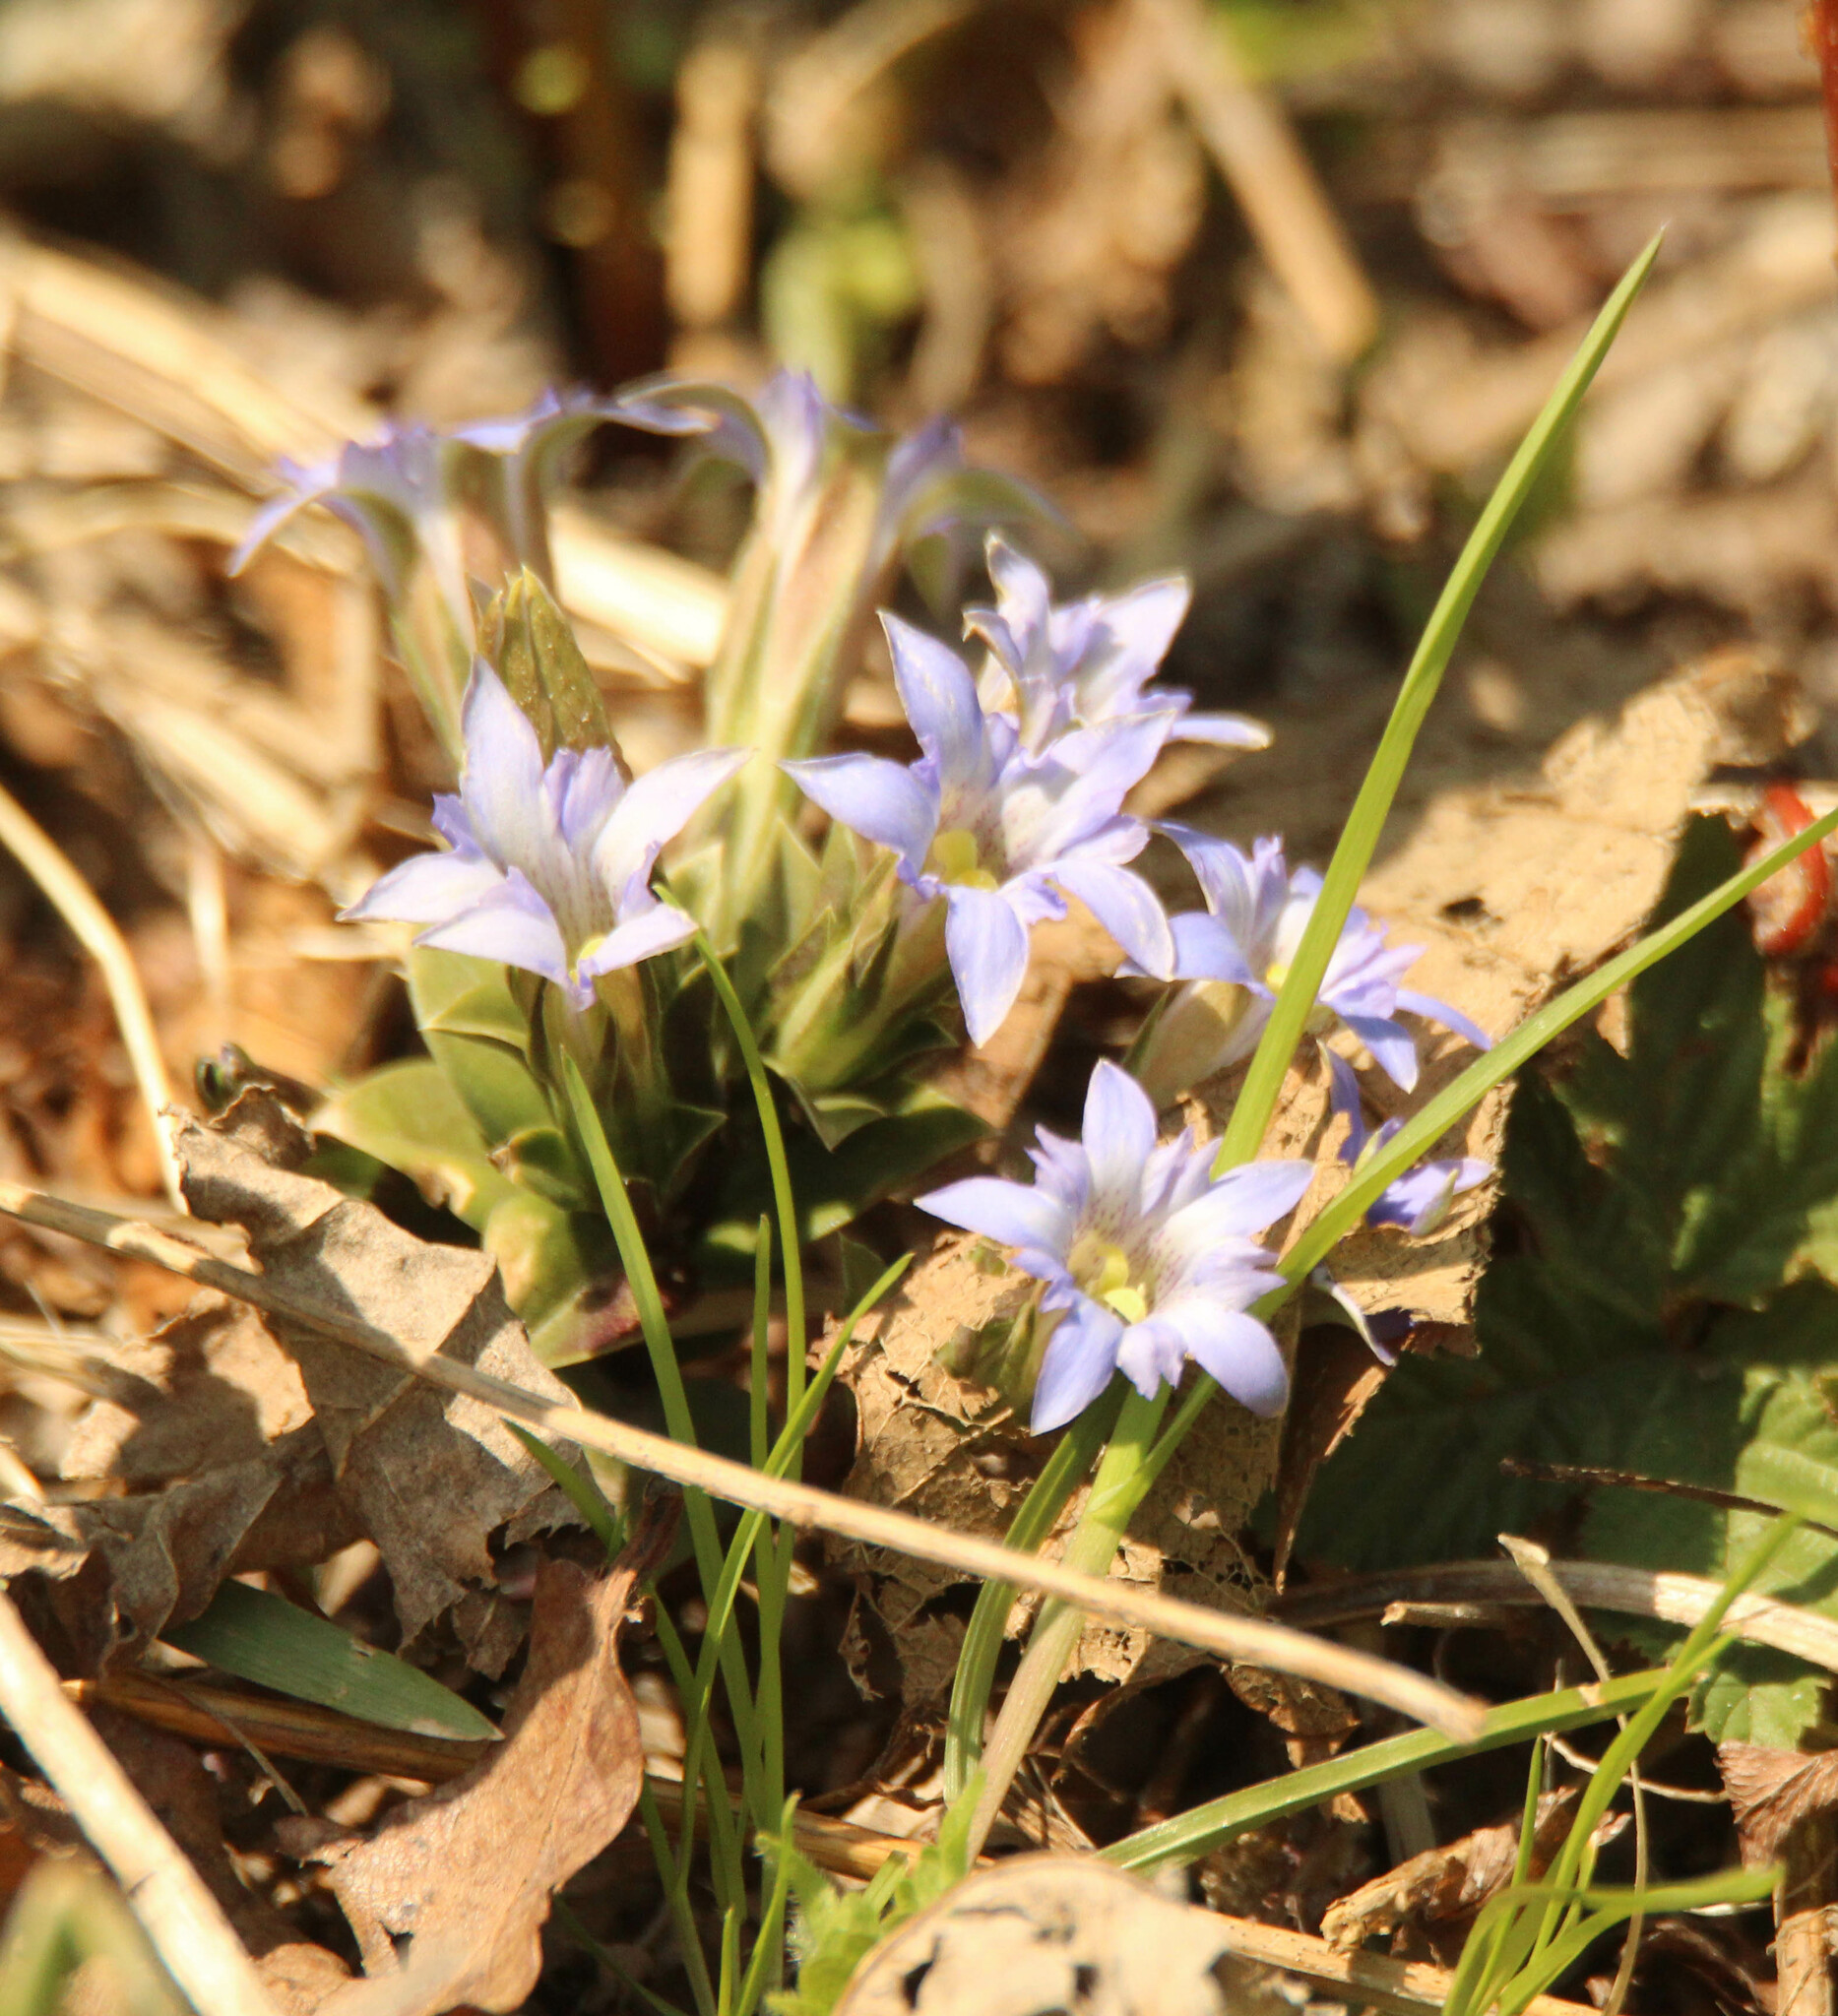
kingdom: Plantae
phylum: Tracheophyta
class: Magnoliopsida
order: Gentianales
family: Gentianaceae
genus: Gentiana
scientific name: Gentiana zollingeri
